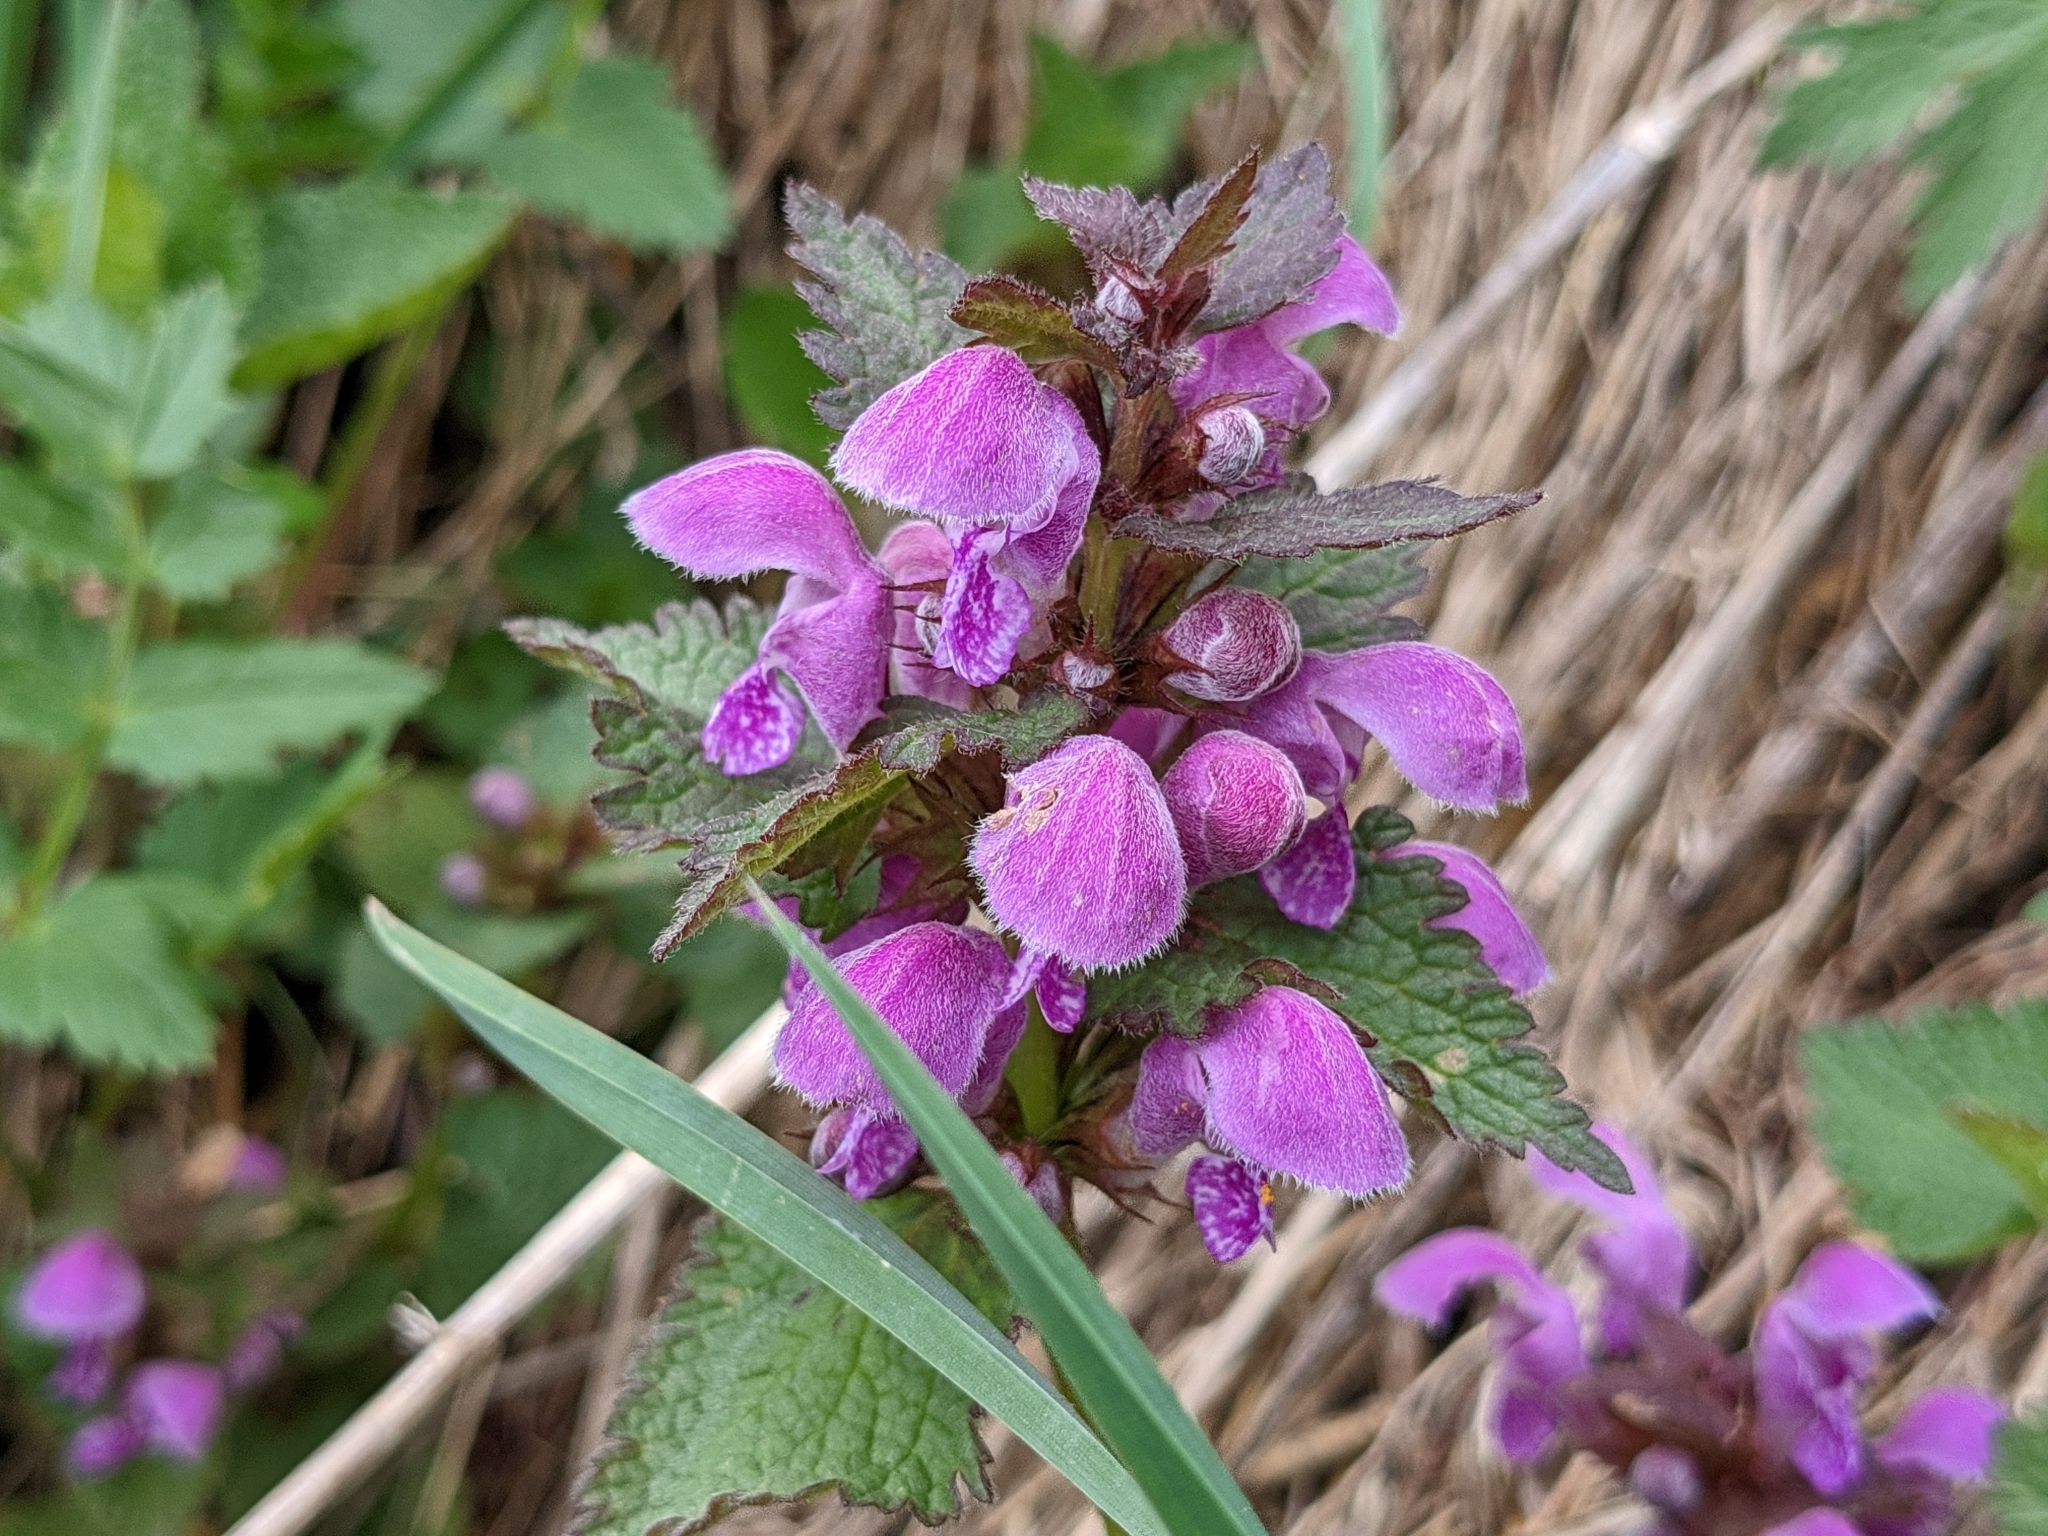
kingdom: Plantae
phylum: Tracheophyta
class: Magnoliopsida
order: Lamiales
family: Lamiaceae
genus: Lamium
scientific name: Lamium maculatum
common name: Spotted dead-nettle
